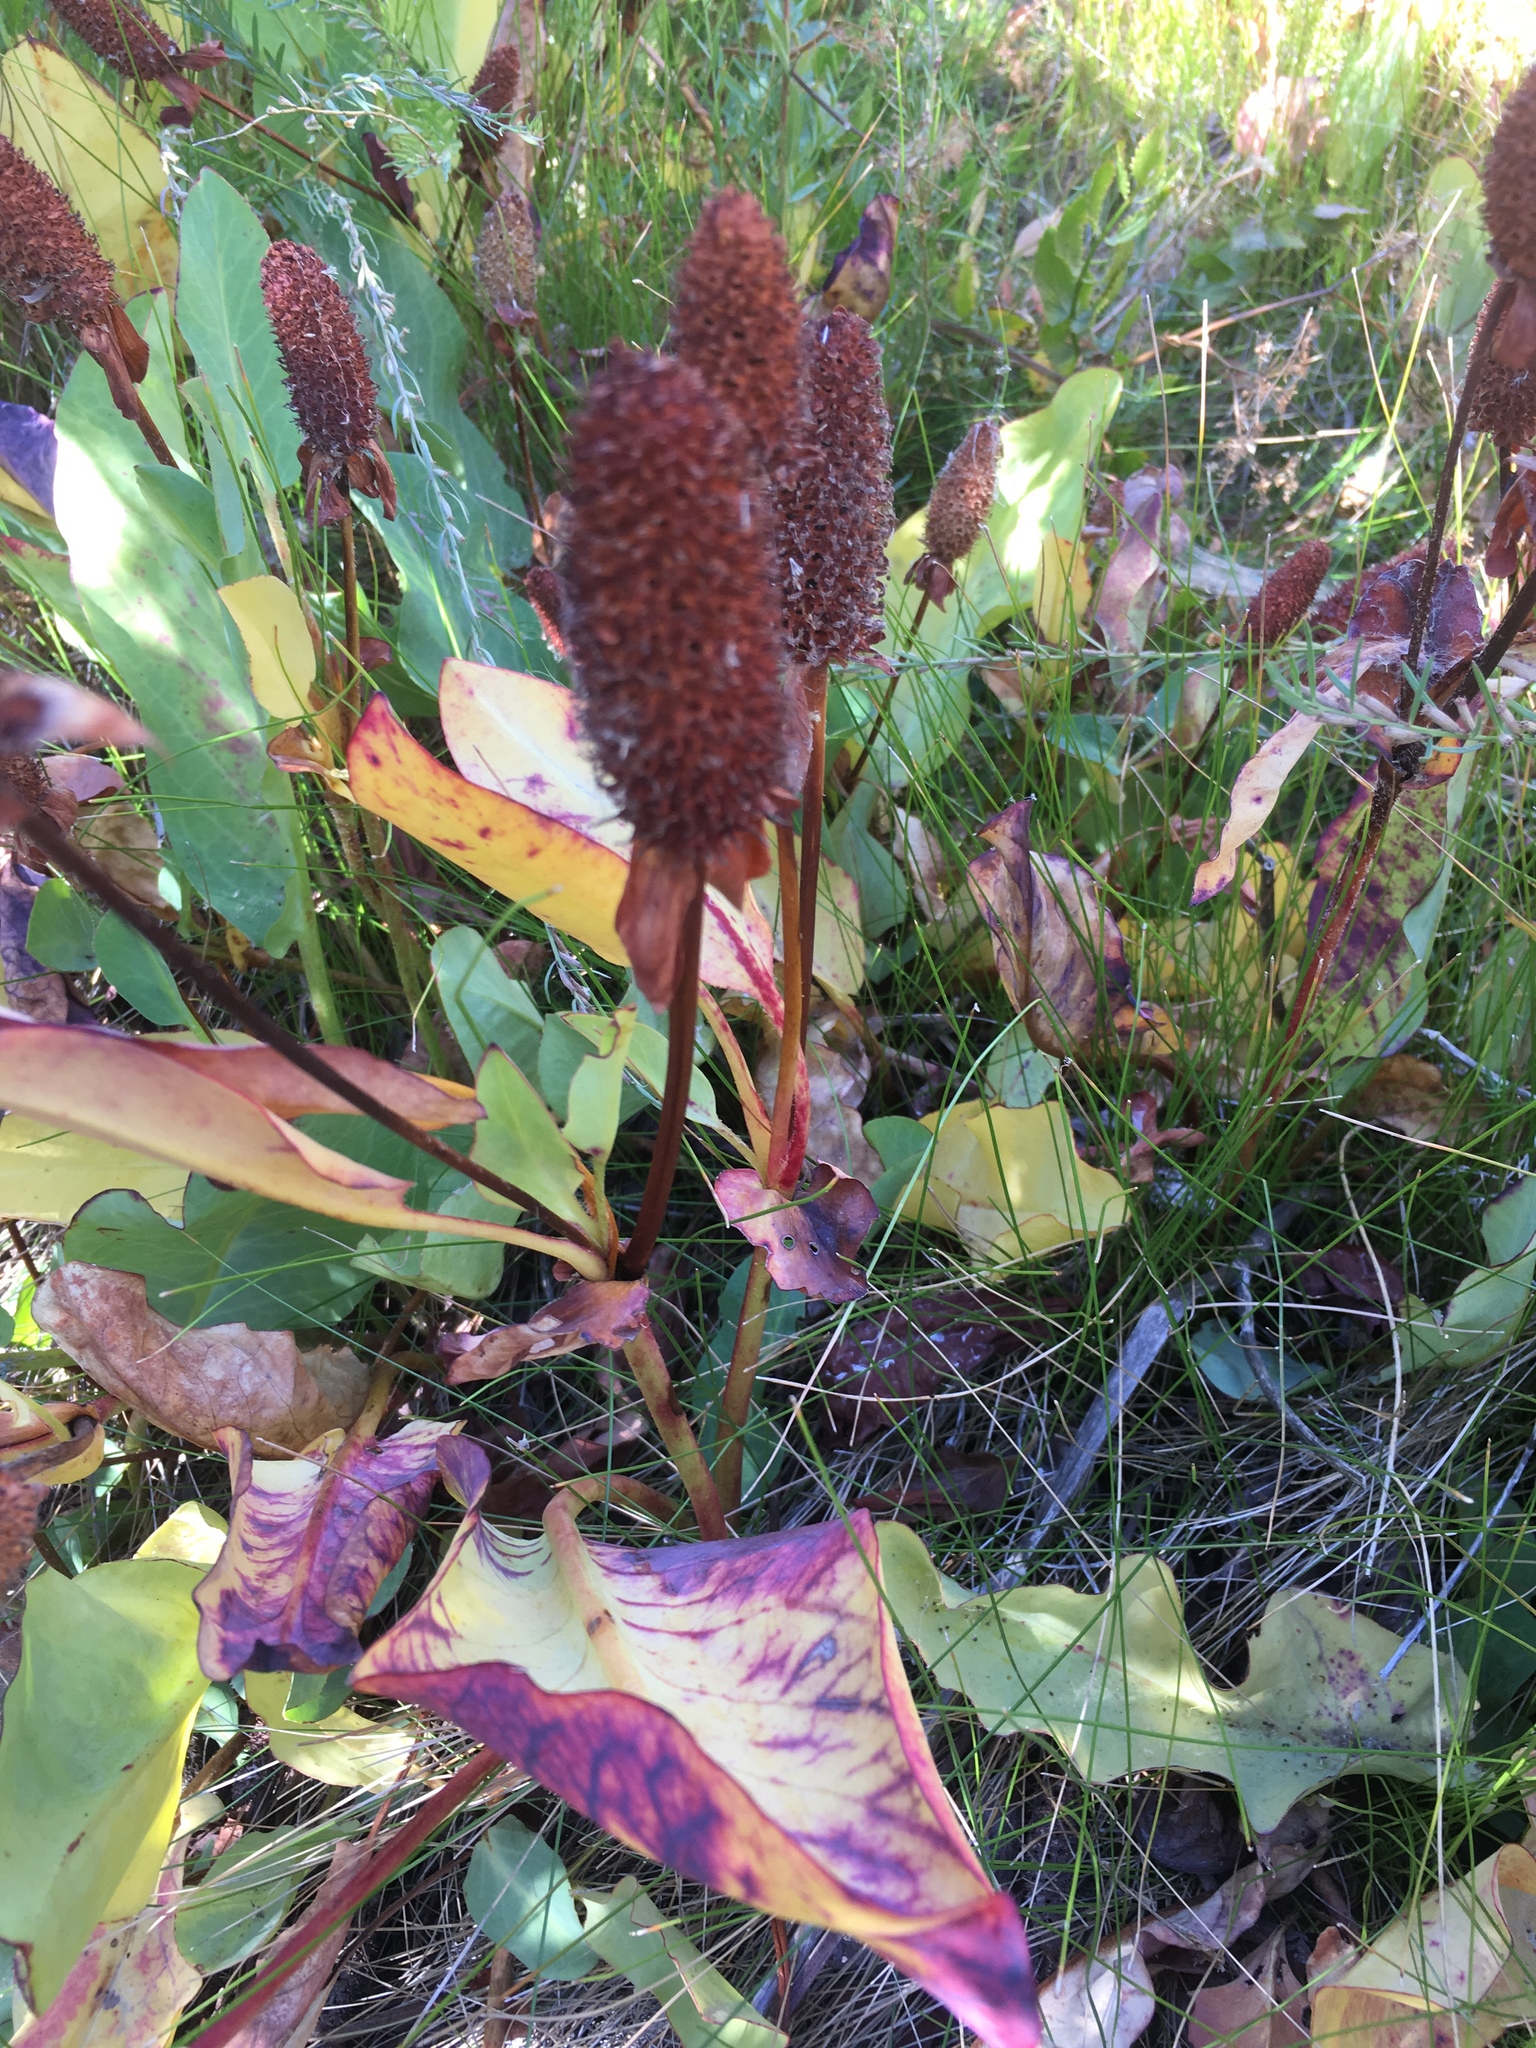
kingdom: Plantae
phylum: Tracheophyta
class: Magnoliopsida
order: Piperales
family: Saururaceae
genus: Anemopsis
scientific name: Anemopsis californica
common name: Apache-beads
